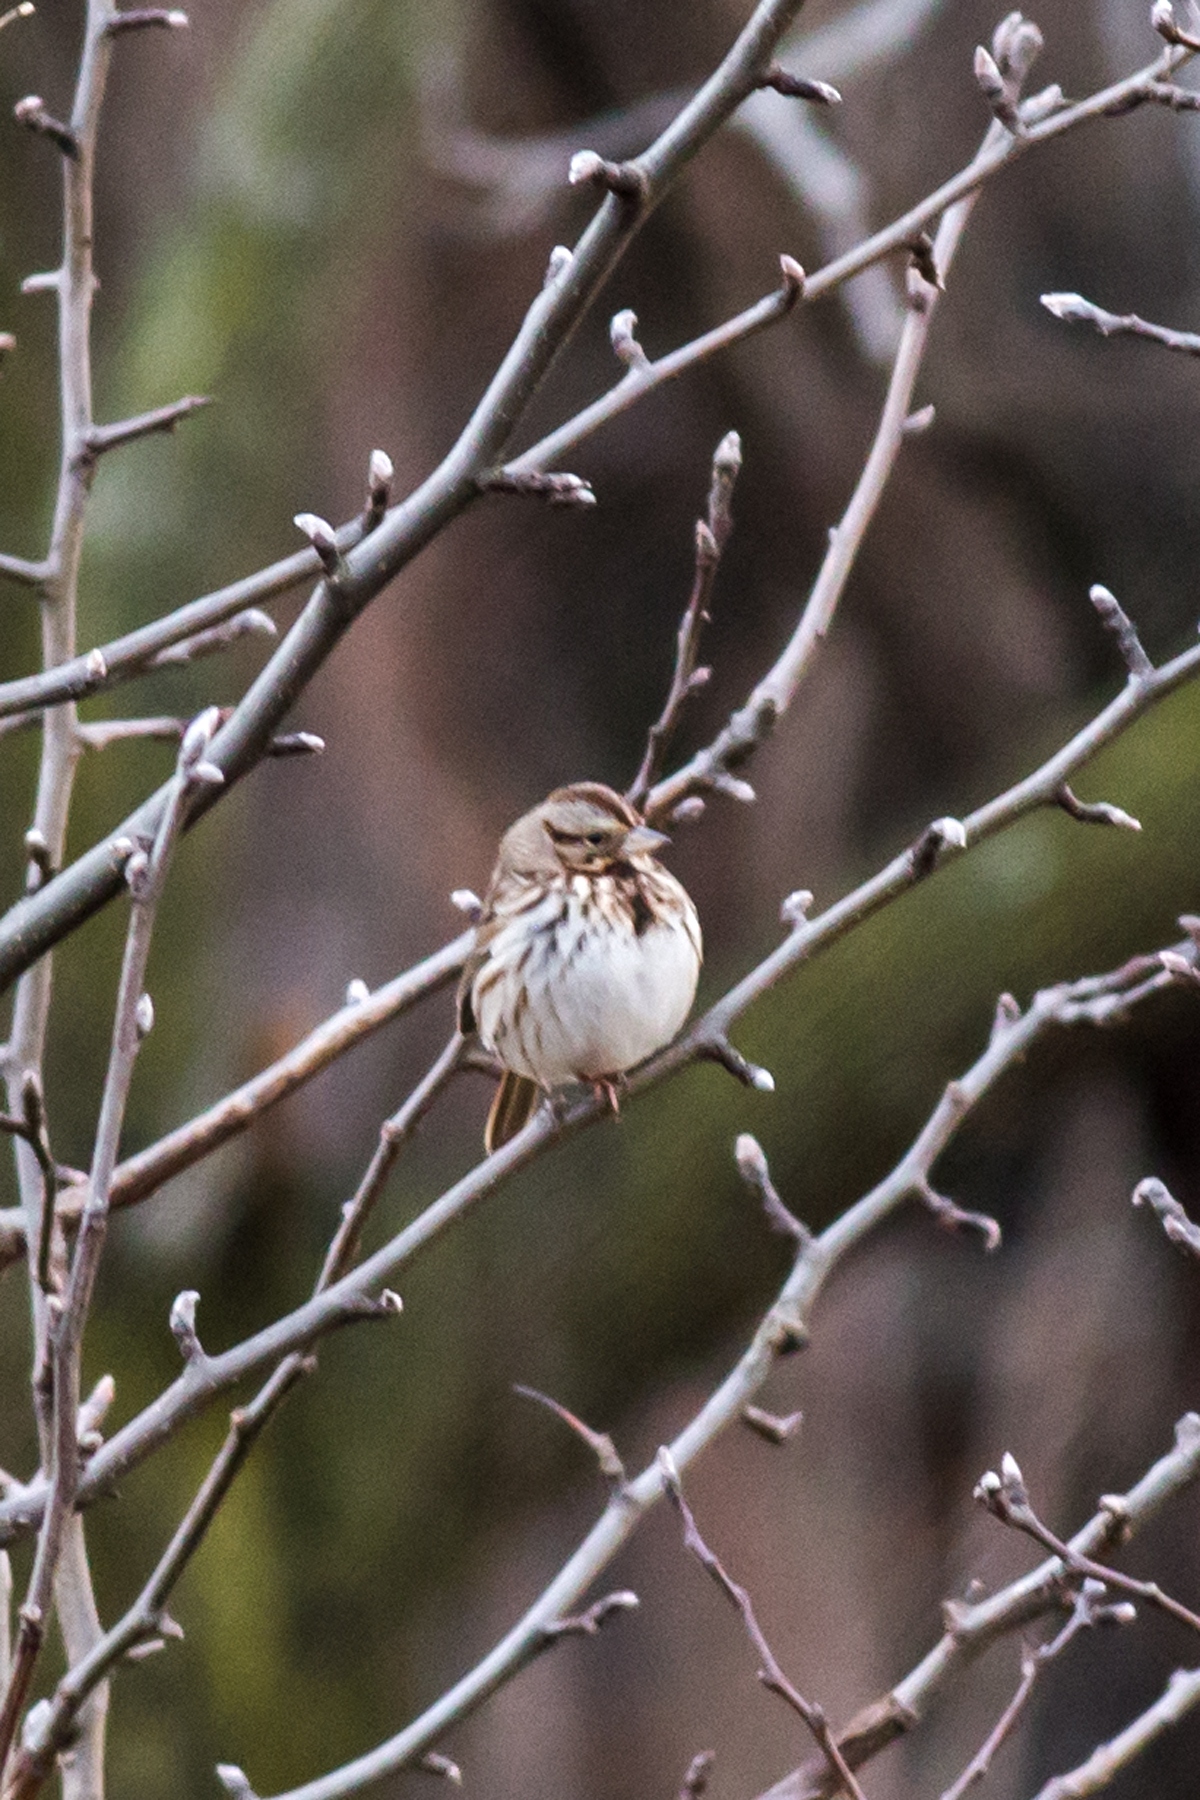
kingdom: Animalia
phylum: Chordata
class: Aves
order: Passeriformes
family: Passerellidae
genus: Melospiza
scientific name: Melospiza melodia
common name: Song sparrow
